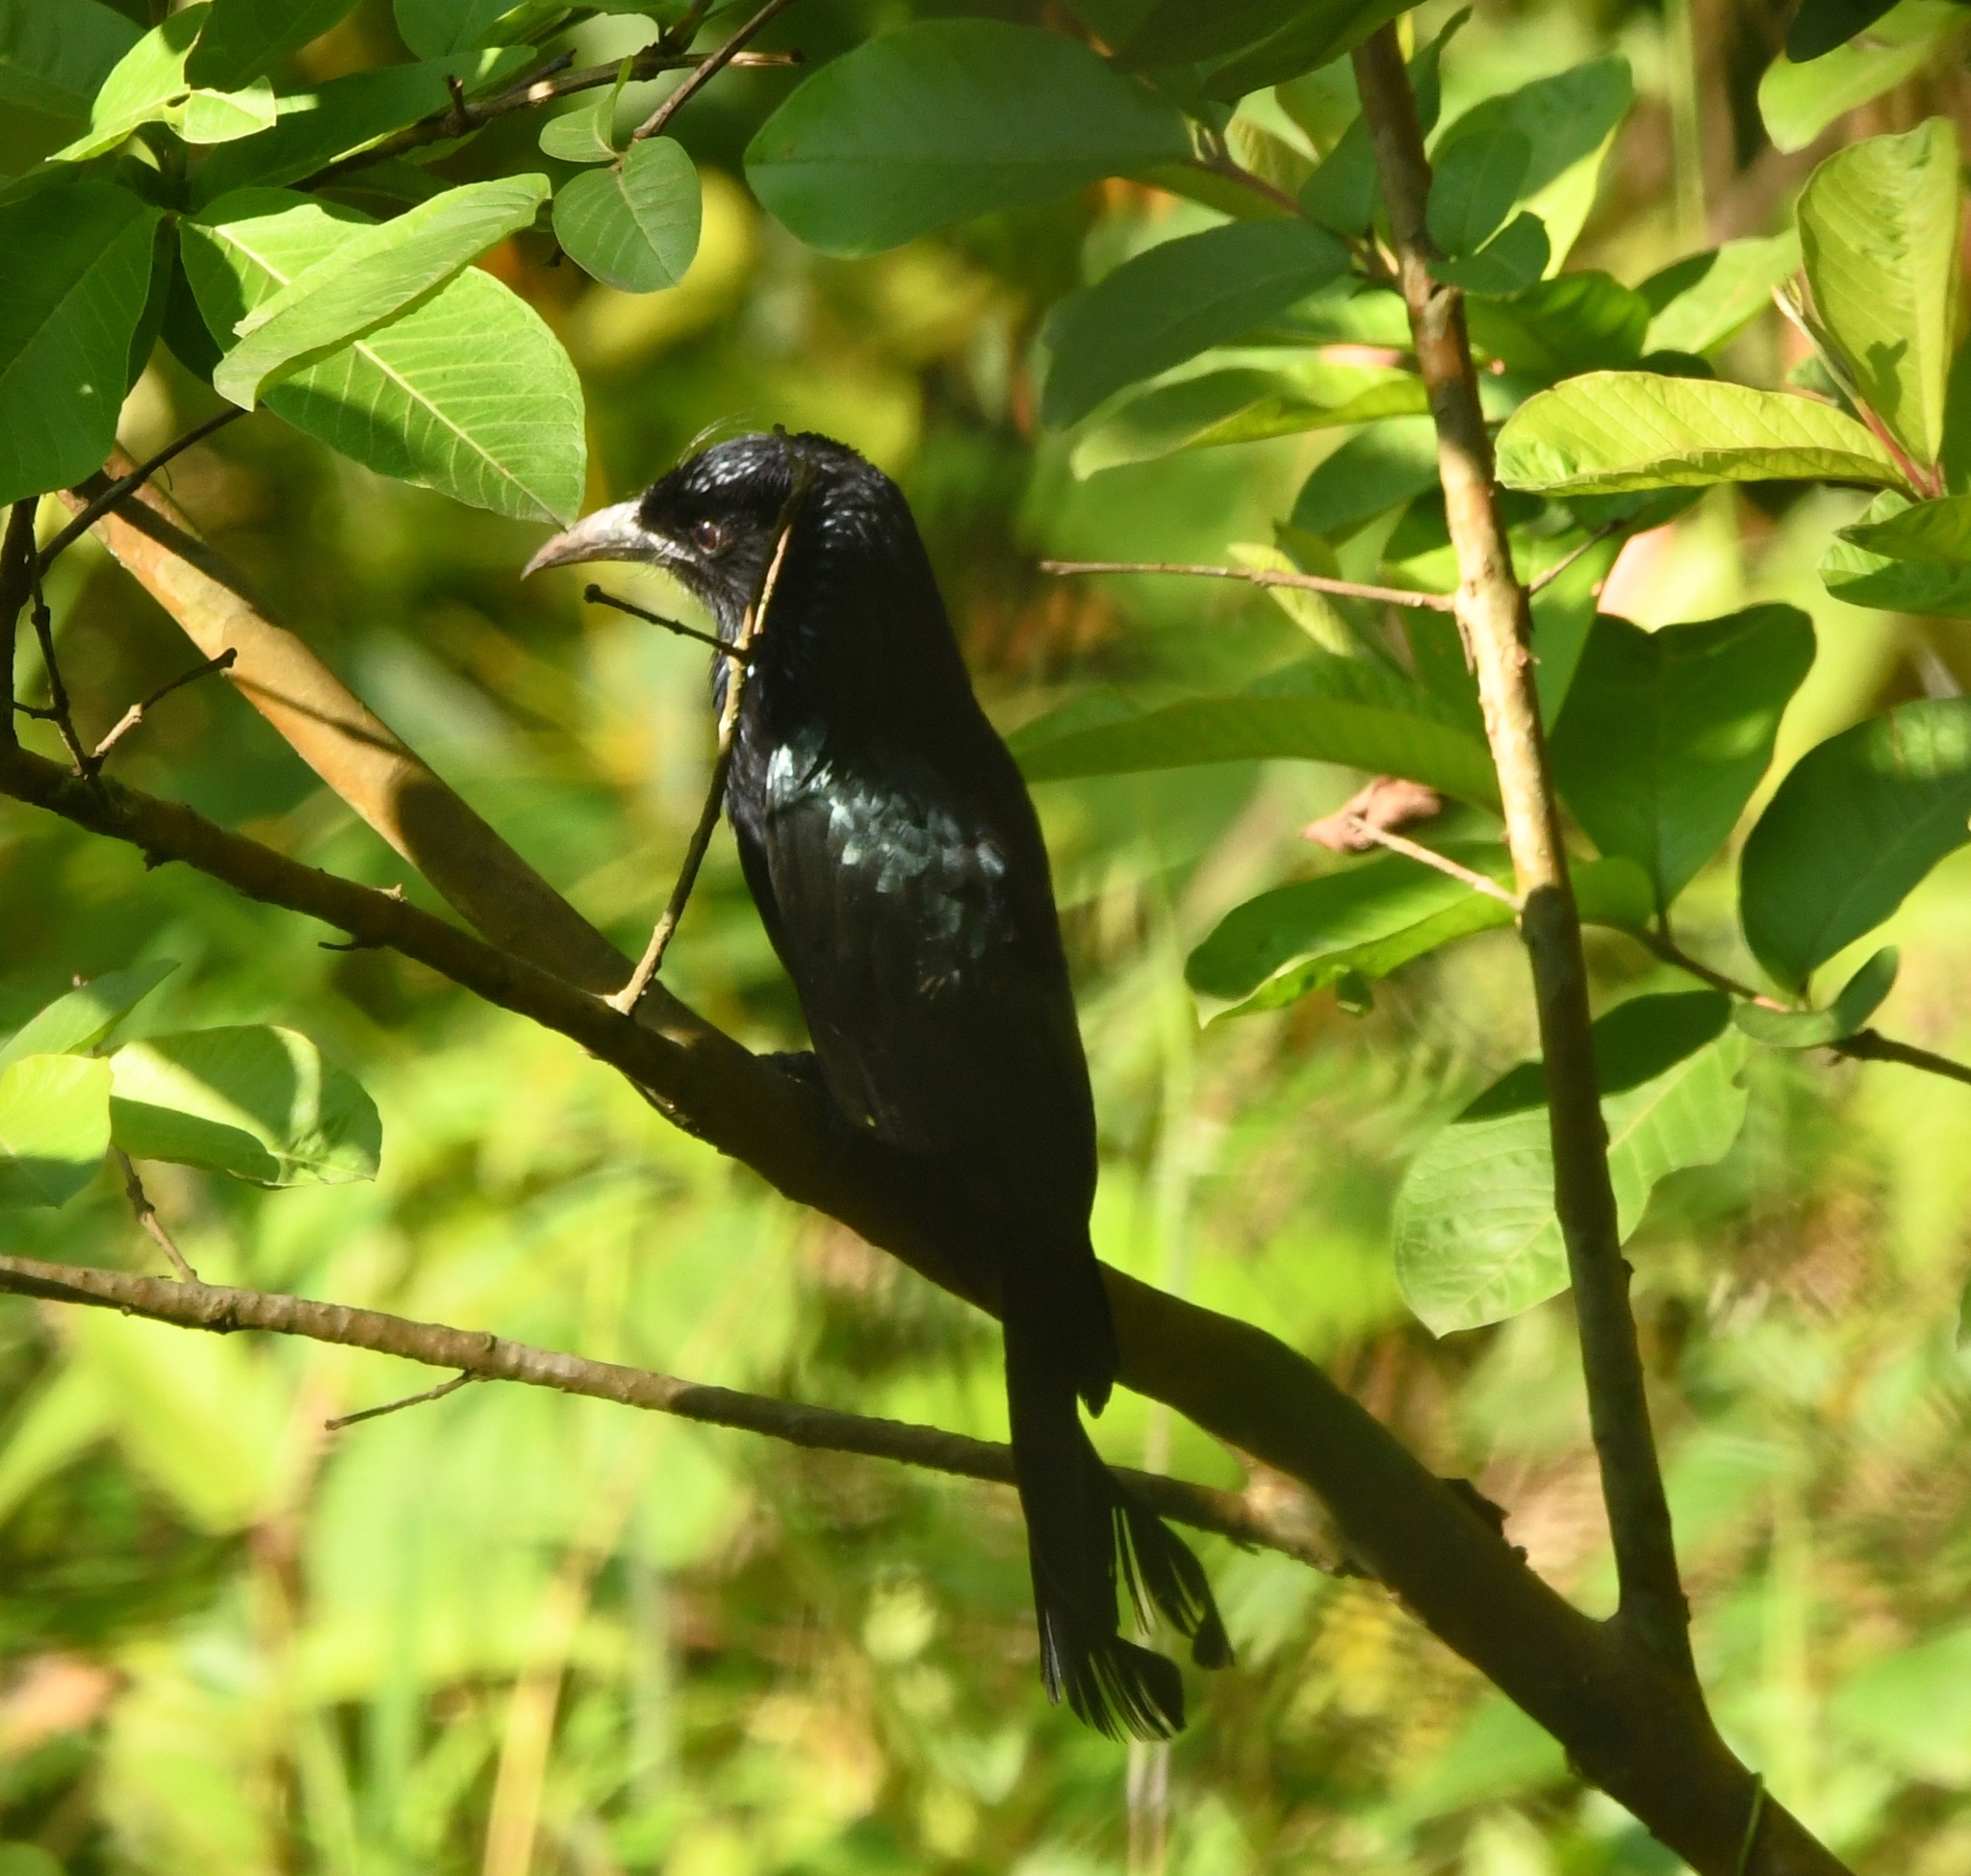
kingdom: Animalia
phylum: Chordata
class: Aves
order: Passeriformes
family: Dicruridae
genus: Dicrurus
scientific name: Dicrurus hottentottus
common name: Hair-crested drongo
